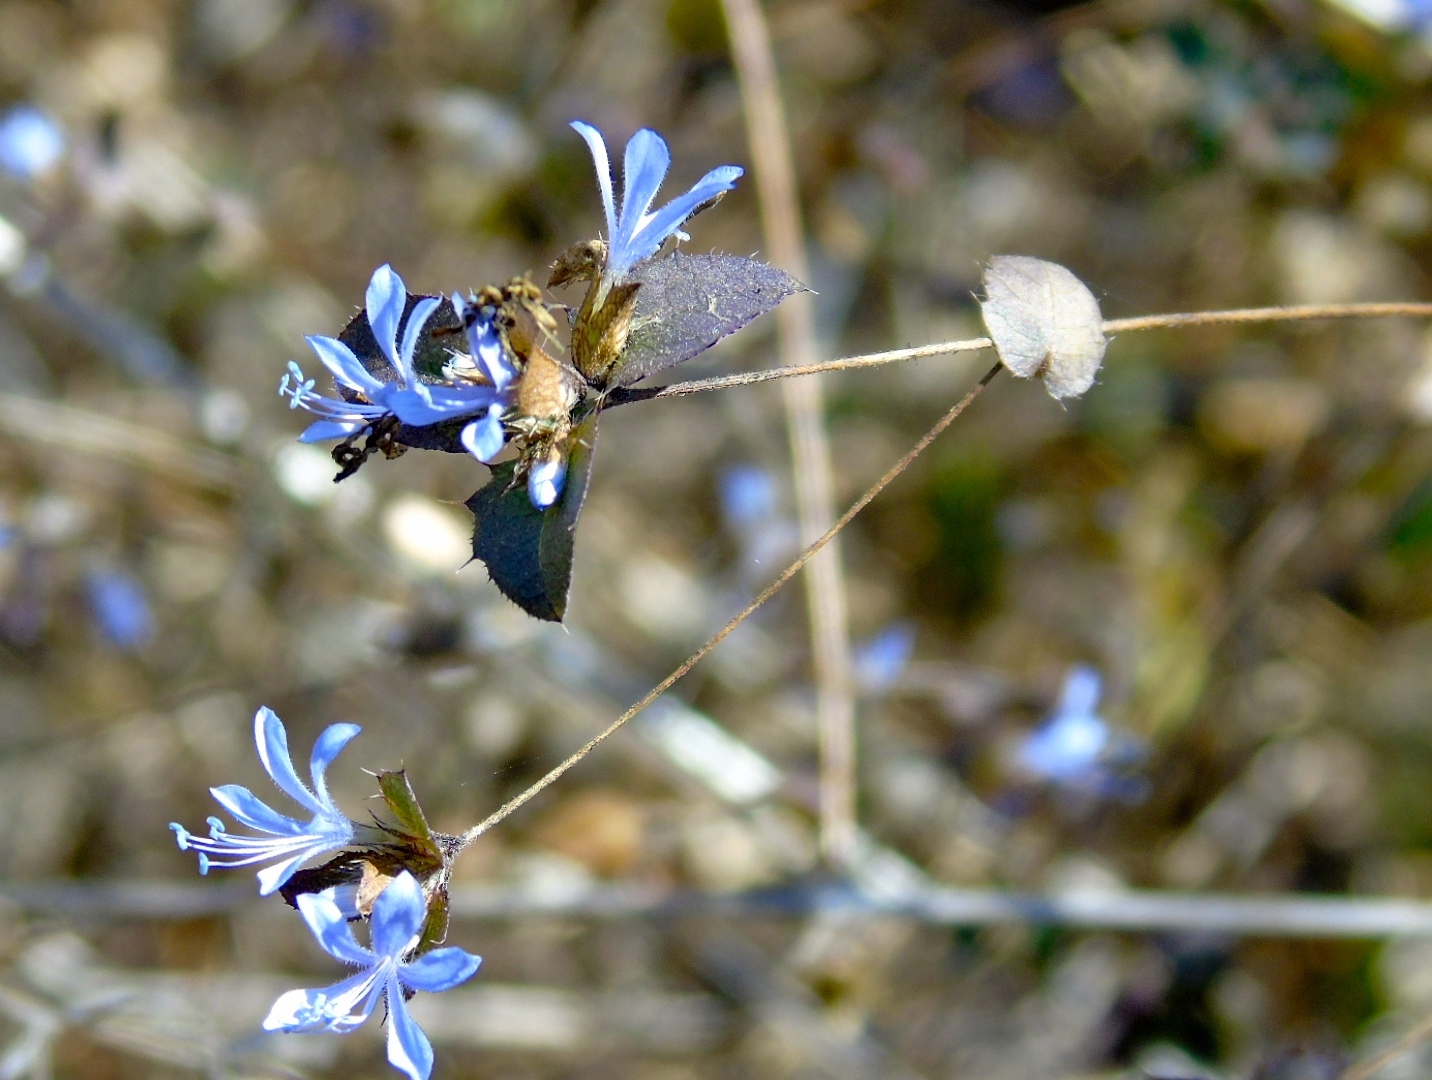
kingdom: Plantae
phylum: Tracheophyta
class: Magnoliopsida
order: Ericales
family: Polemoniaceae
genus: Loeselia
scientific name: Loeselia ciliata
